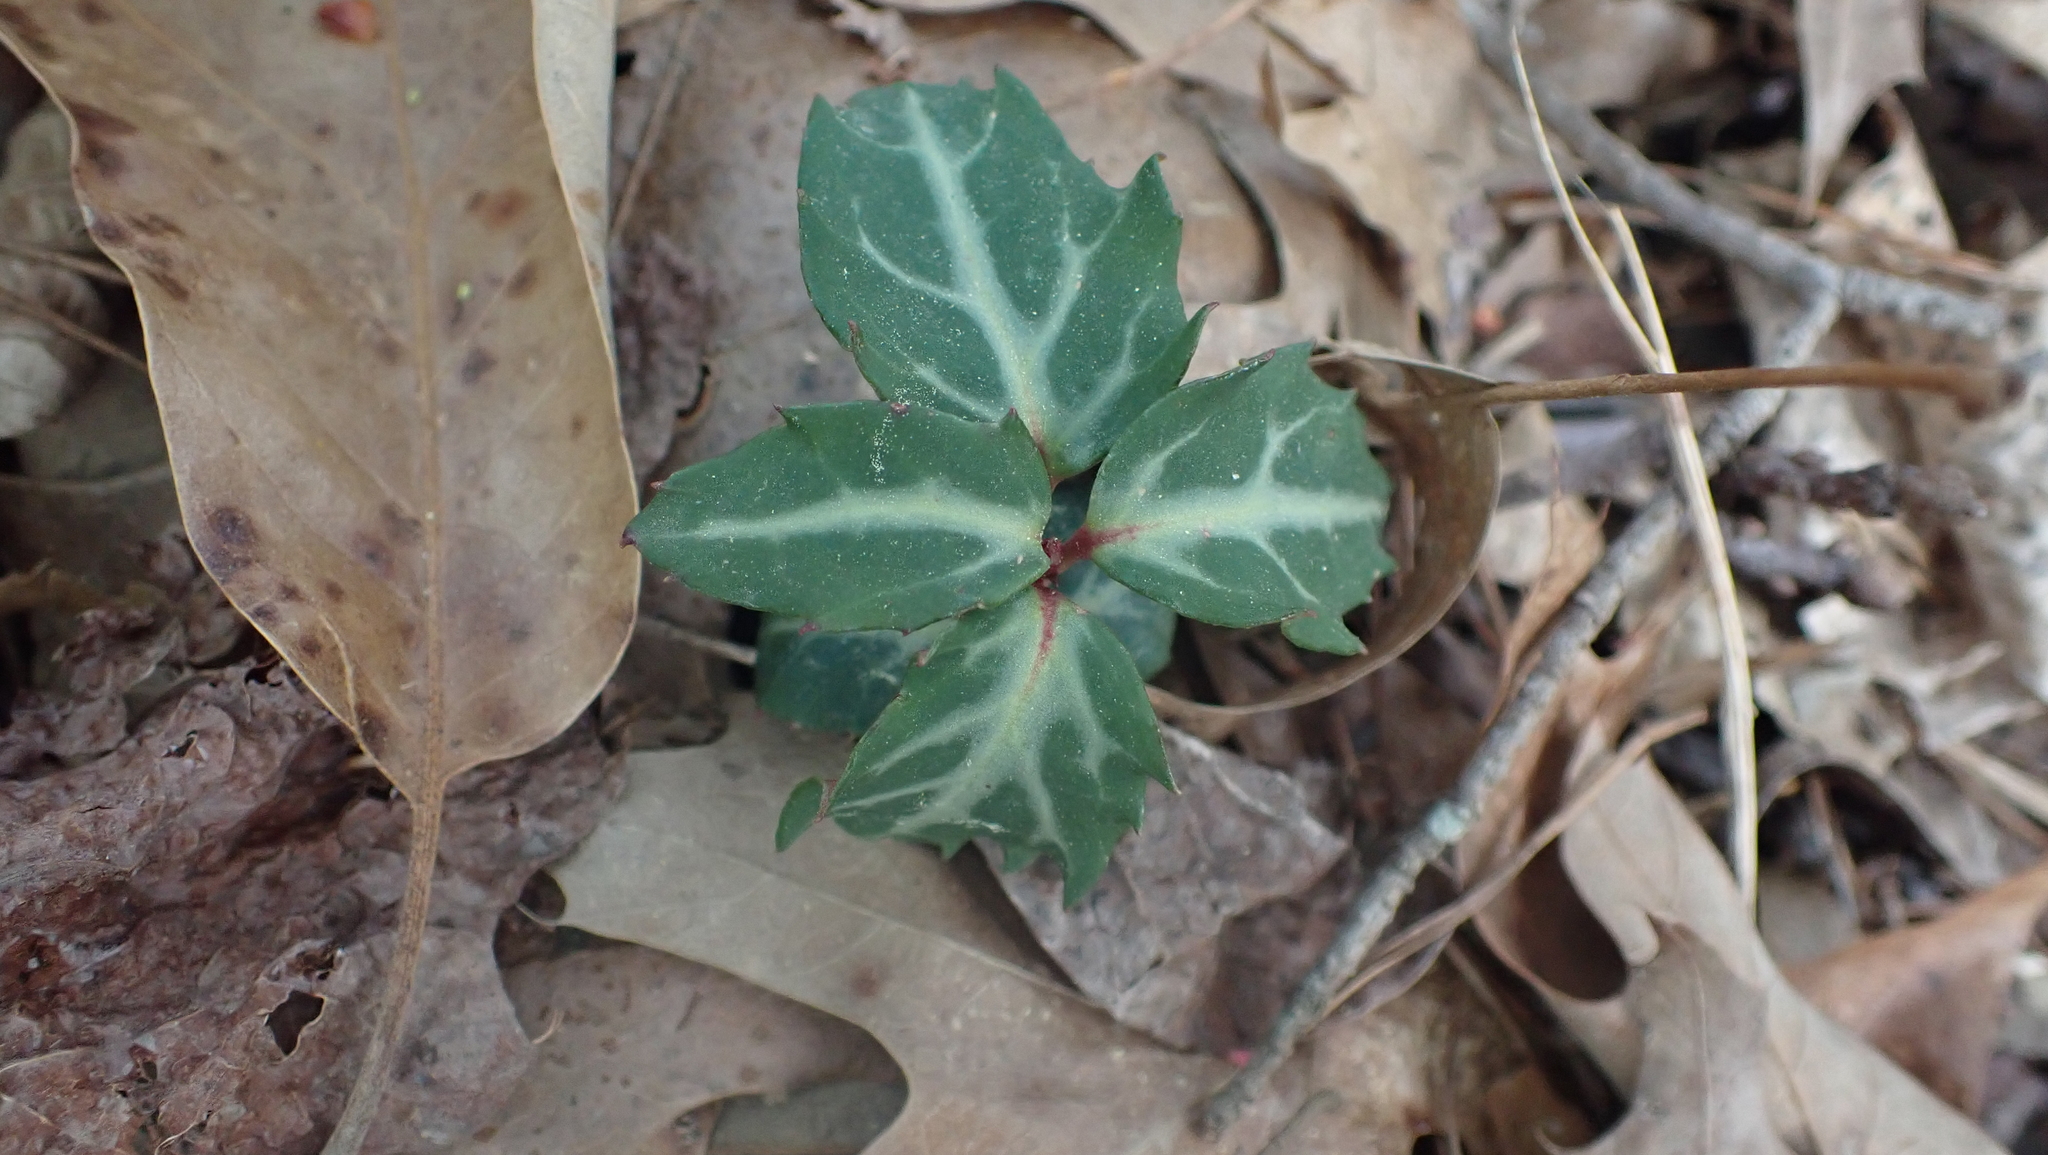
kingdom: Plantae
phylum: Tracheophyta
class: Magnoliopsida
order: Ericales
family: Ericaceae
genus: Chimaphila
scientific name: Chimaphila maculata
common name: Spotted pipsissewa
